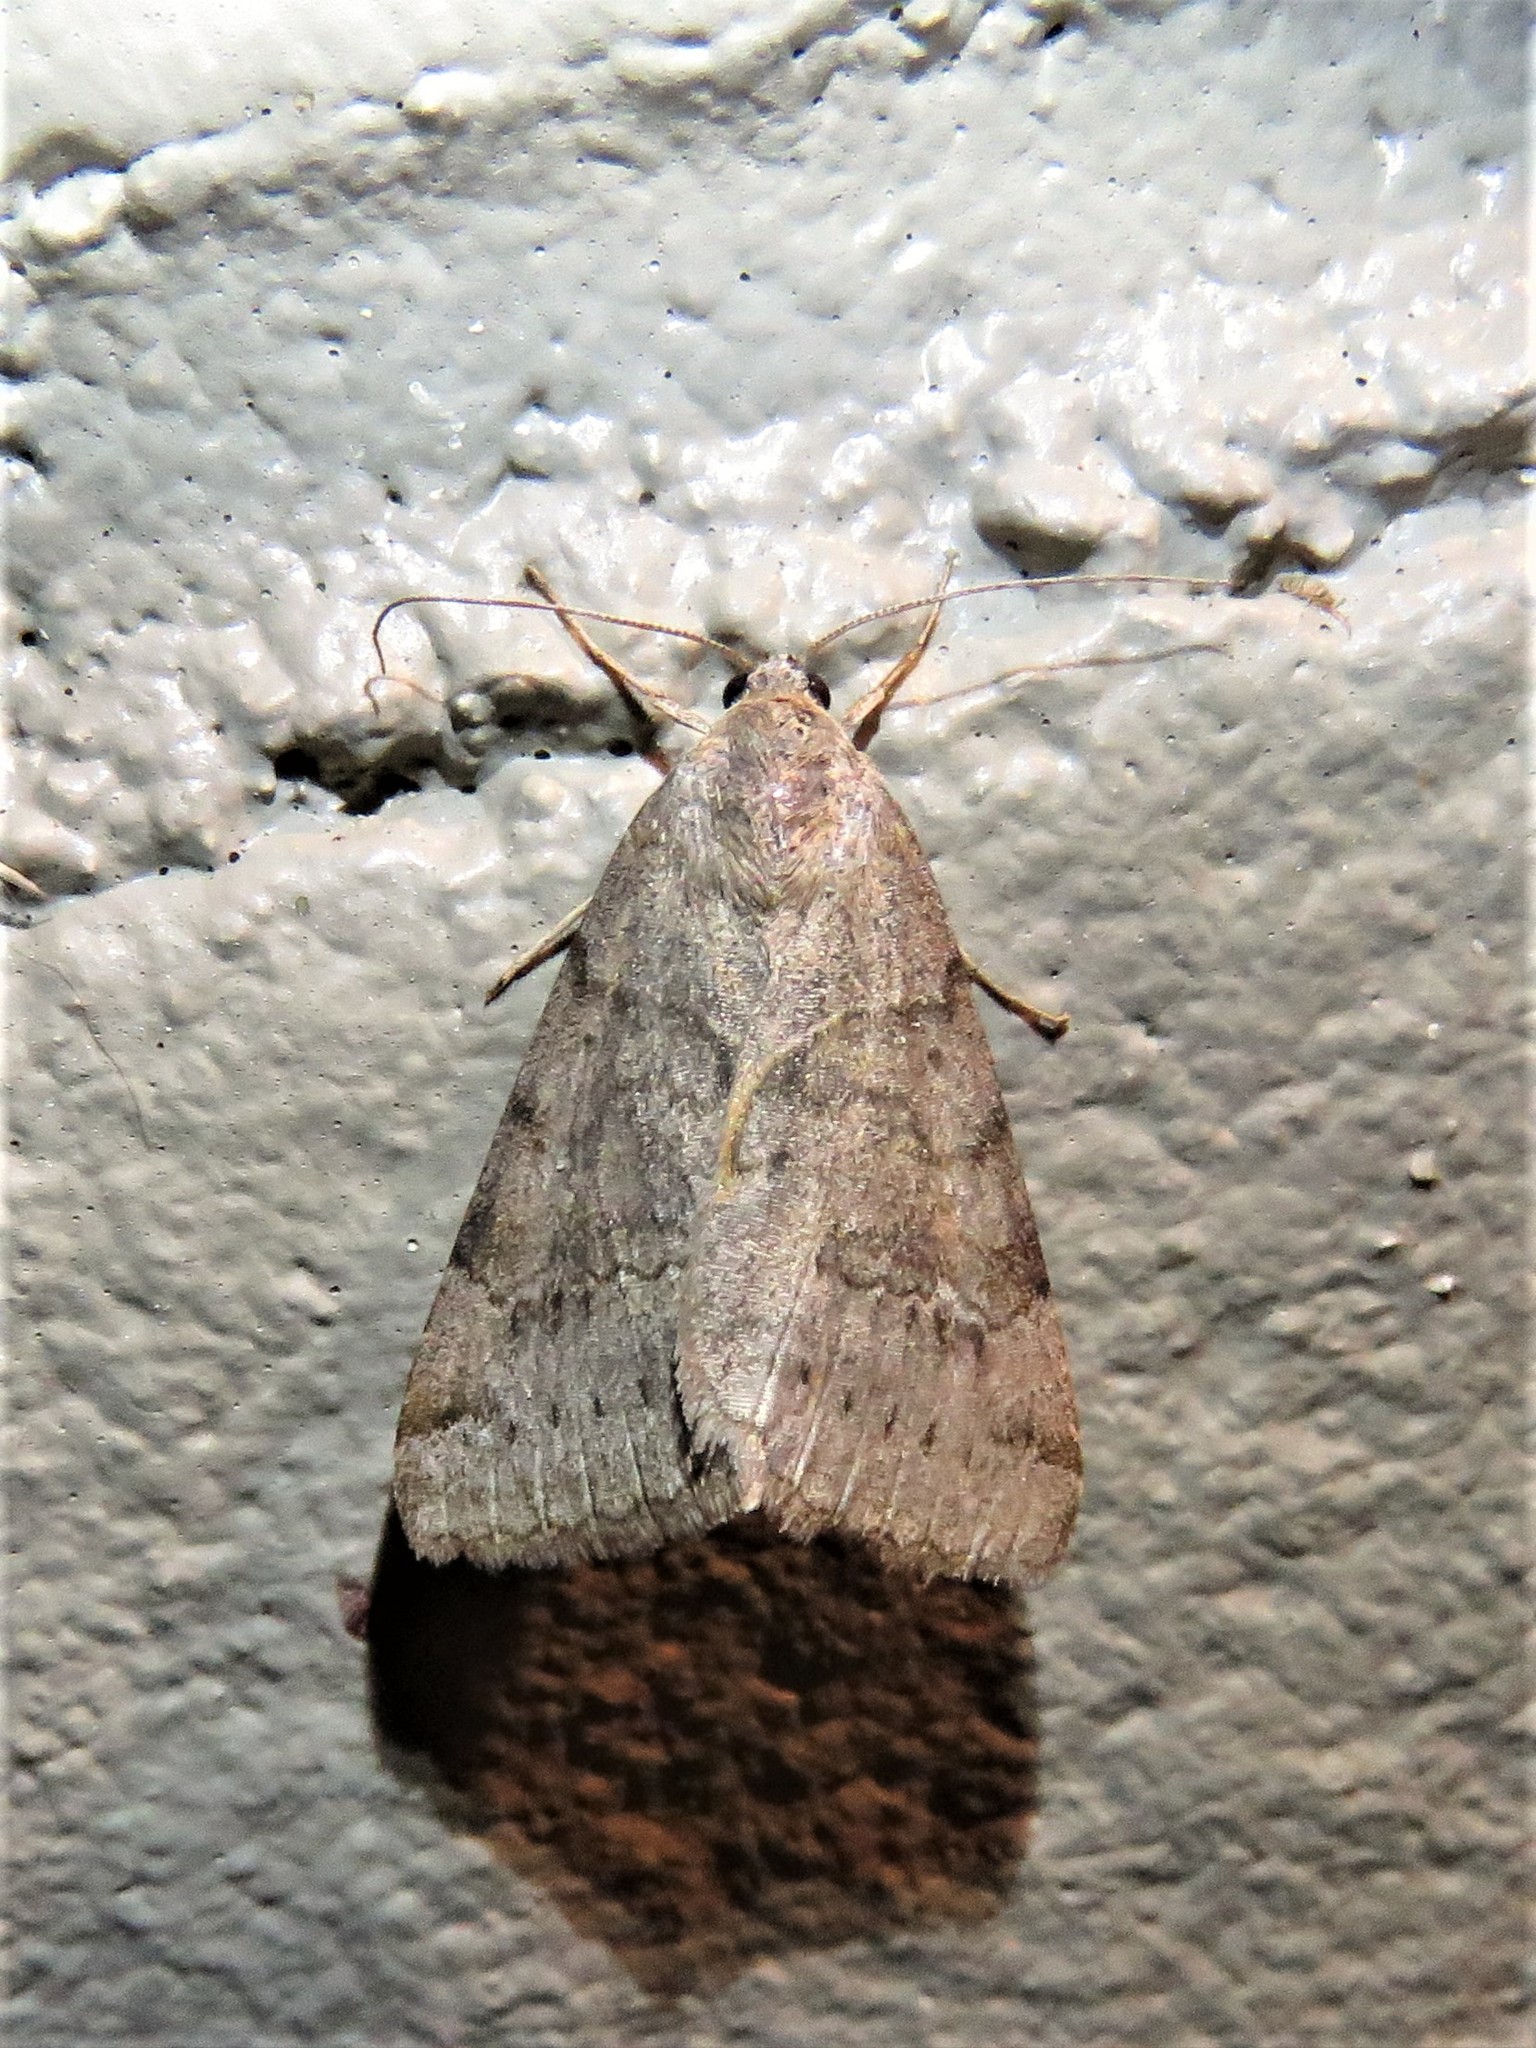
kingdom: Animalia
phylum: Arthropoda
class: Insecta
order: Lepidoptera
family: Erebidae
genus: Caenurgina
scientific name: Caenurgina erechtea
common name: Forage looper moth
